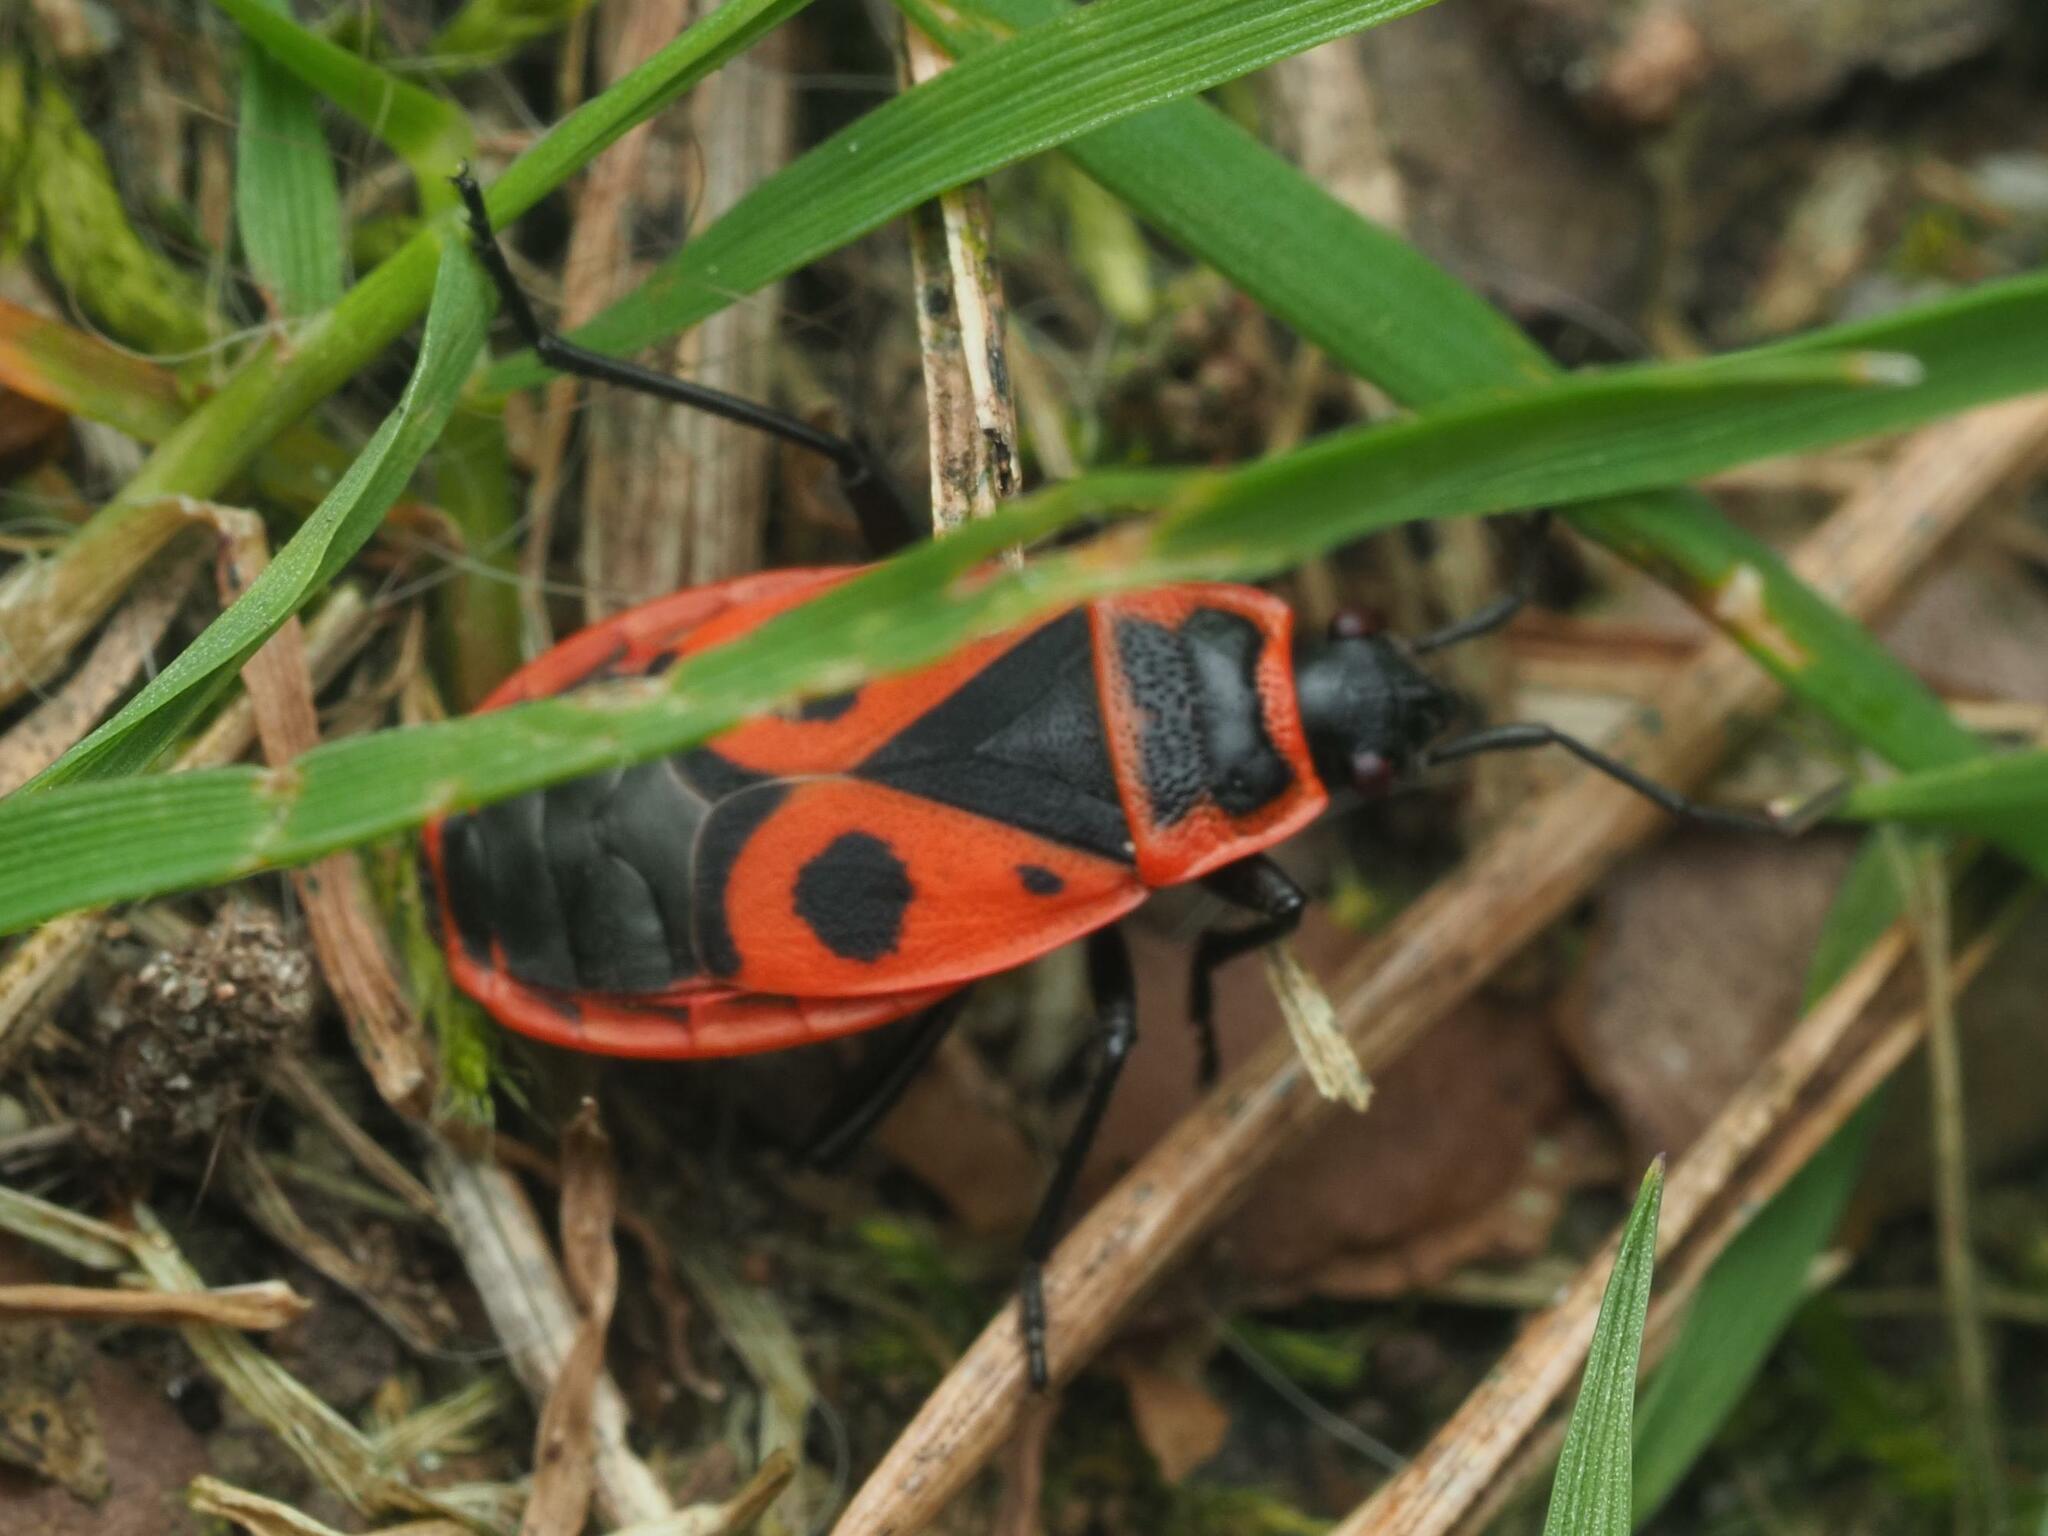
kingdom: Animalia
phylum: Arthropoda
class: Insecta
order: Hemiptera
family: Pyrrhocoridae
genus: Pyrrhocoris
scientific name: Pyrrhocoris apterus
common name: Firebug
